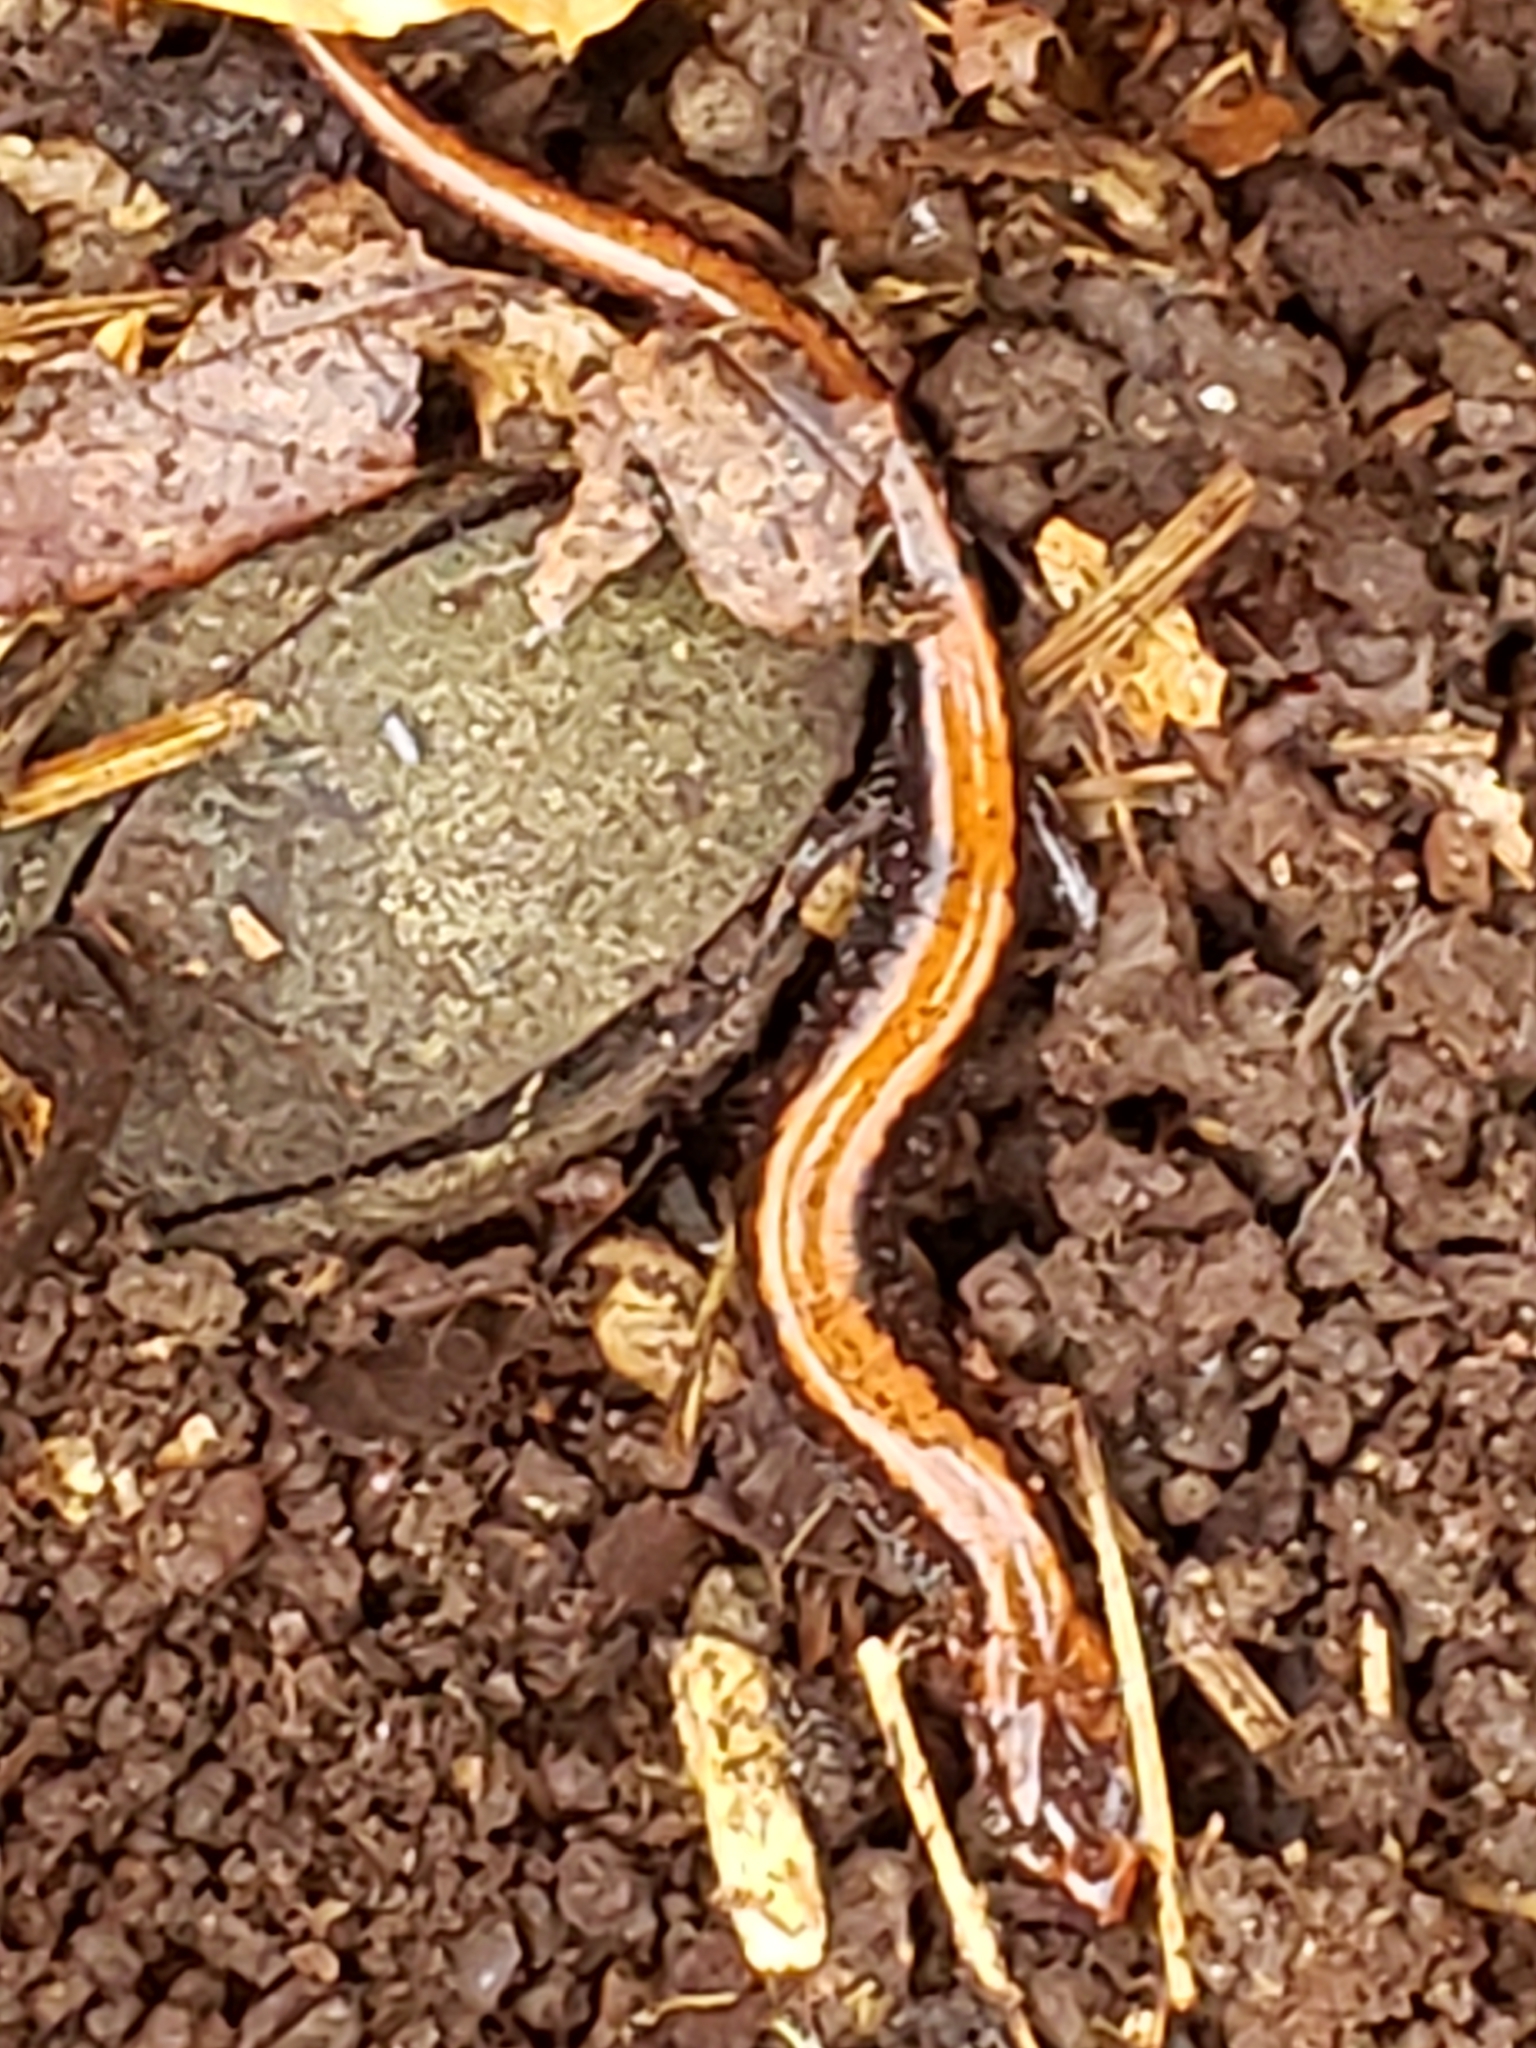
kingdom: Animalia
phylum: Chordata
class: Amphibia
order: Caudata
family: Plethodontidae
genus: Plethodon
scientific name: Plethodon cinereus
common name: Redback salamander
